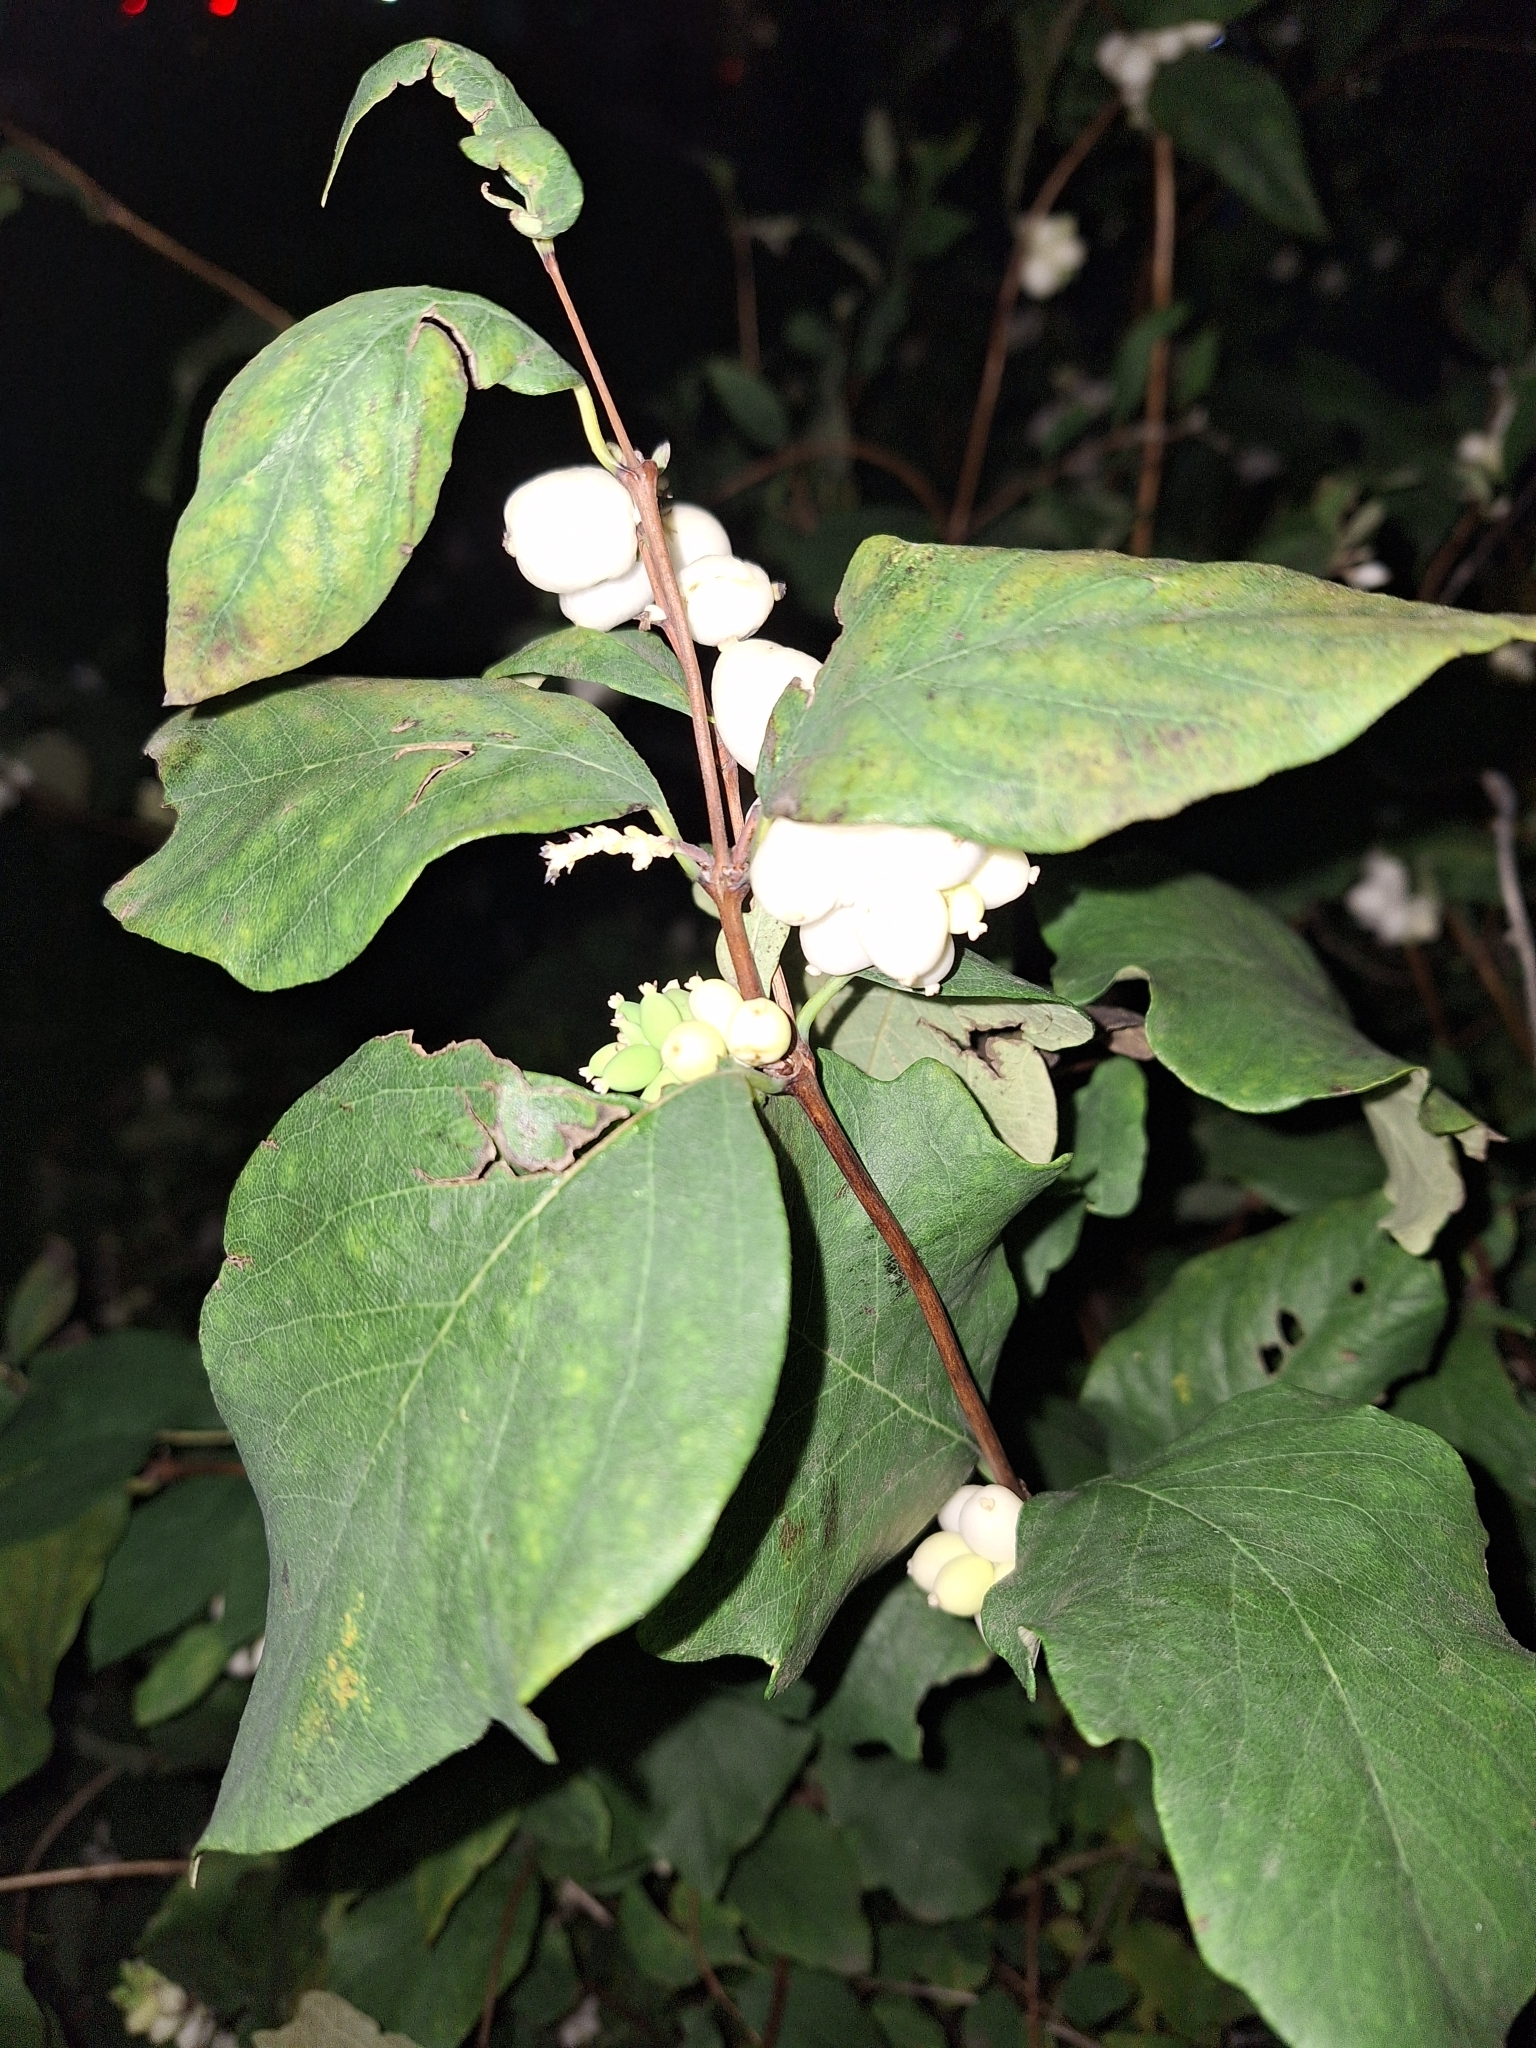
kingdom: Plantae
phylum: Tracheophyta
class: Magnoliopsida
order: Dipsacales
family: Caprifoliaceae
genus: Symphoricarpos
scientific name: Symphoricarpos albus
